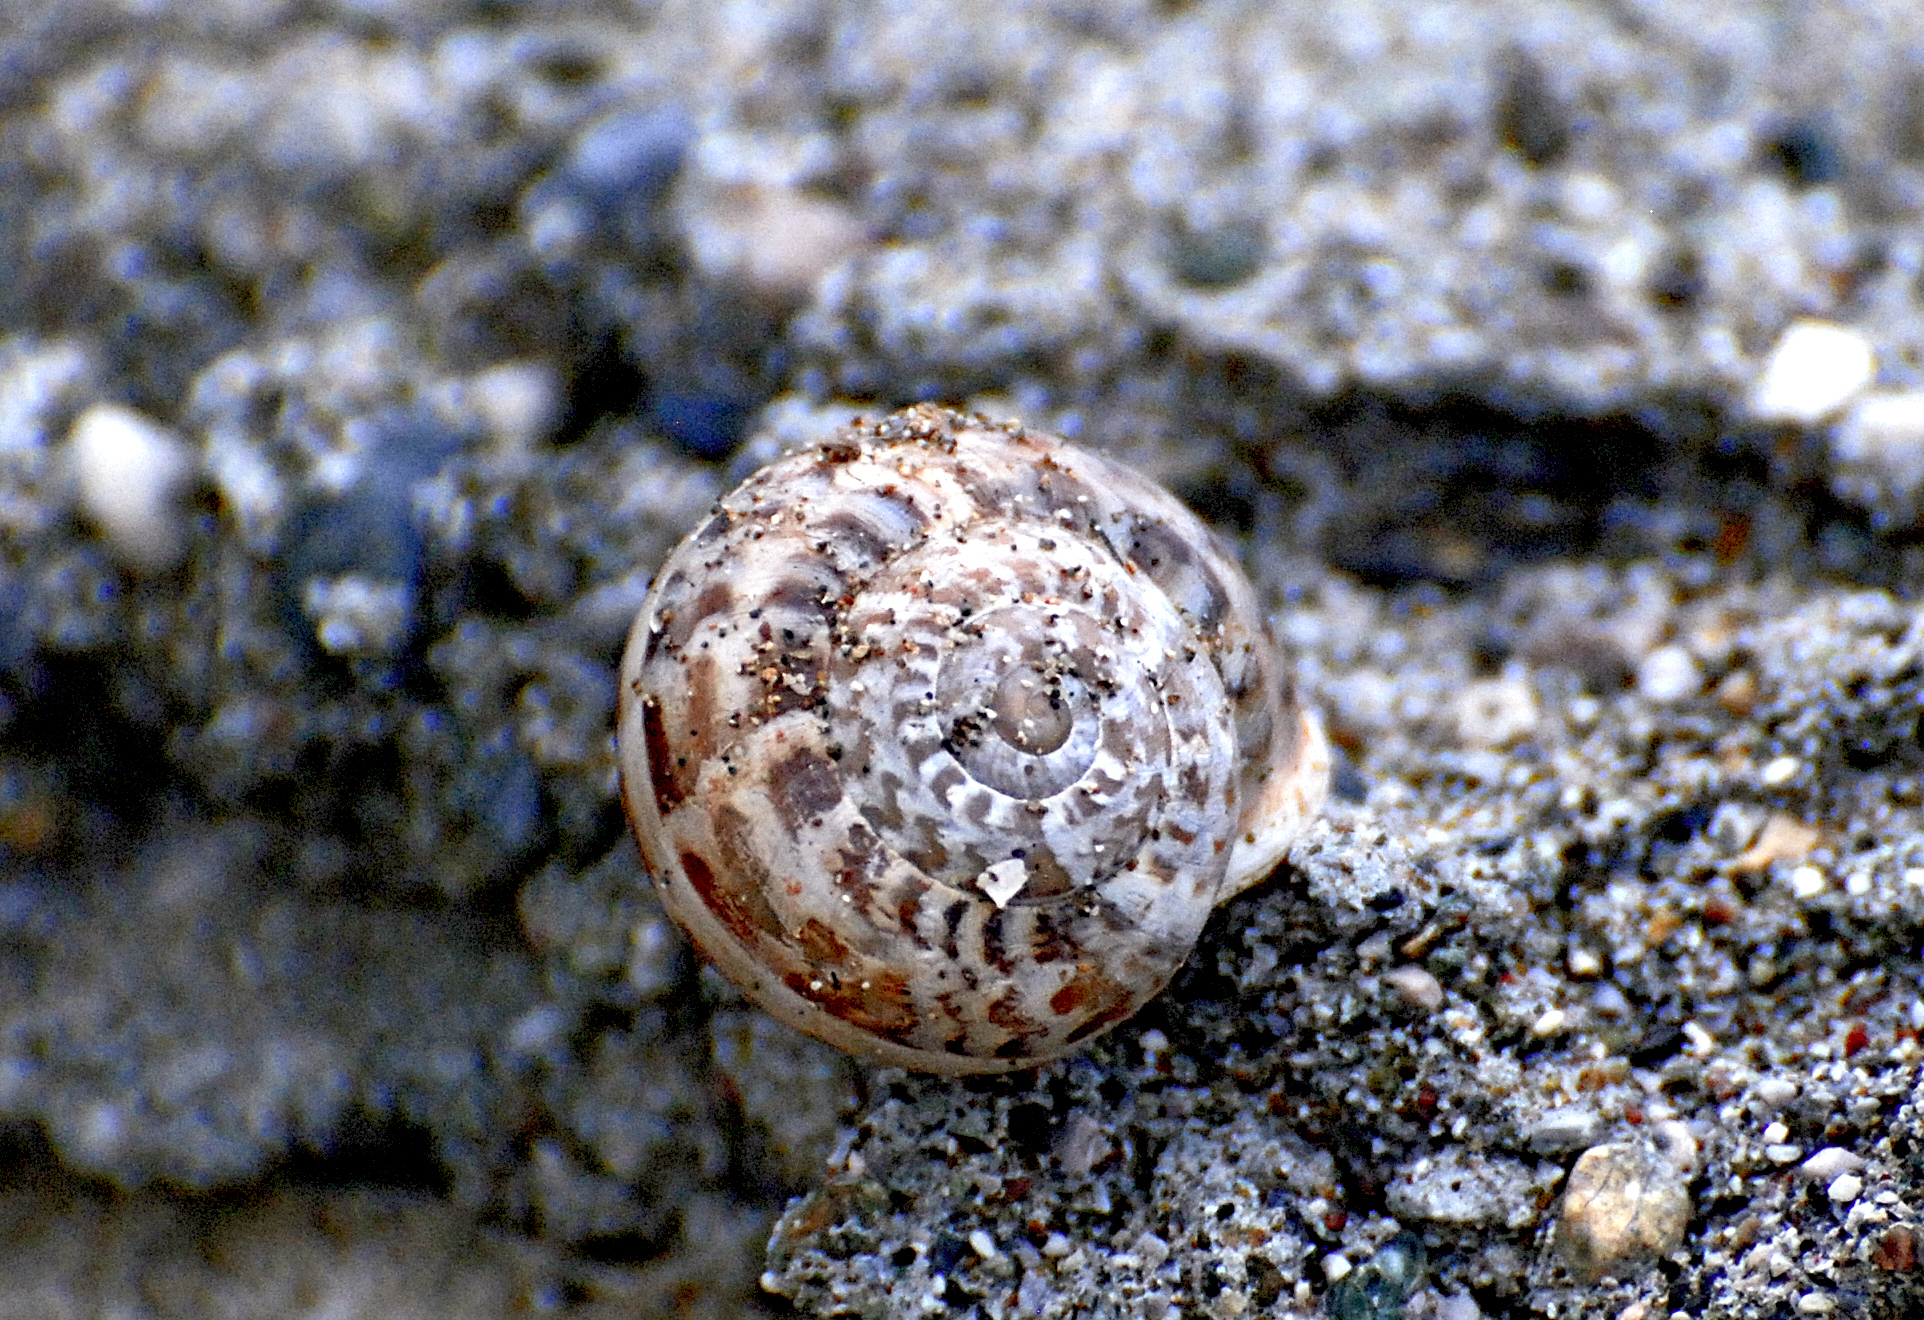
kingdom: Animalia
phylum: Mollusca
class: Gastropoda
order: Stylommatophora
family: Helicidae
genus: Eobania
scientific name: Eobania vermiculata
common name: Chocolateband snail
